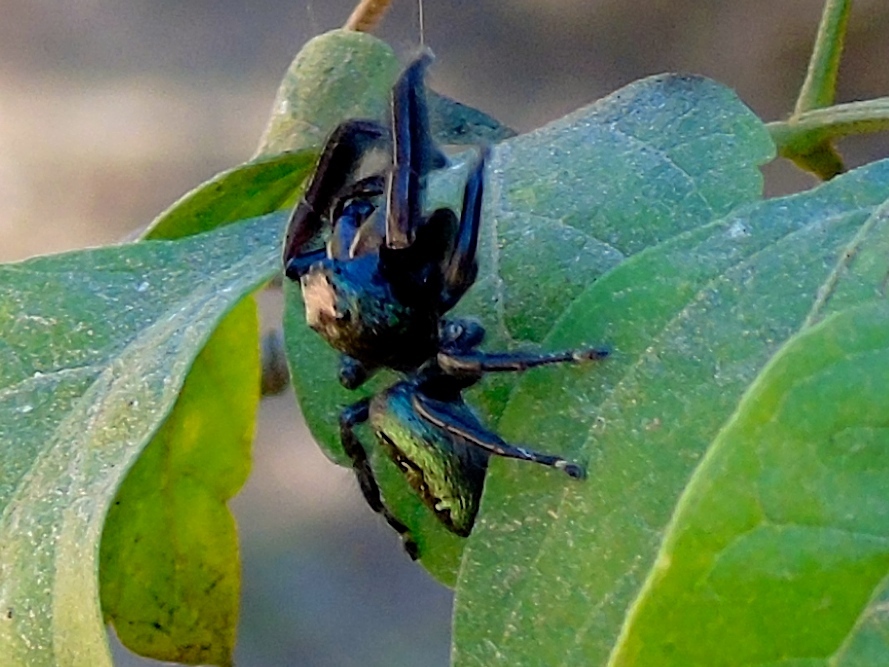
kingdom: Animalia
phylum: Arthropoda
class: Arachnida
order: Araneae
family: Salticidae
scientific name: Salticidae
